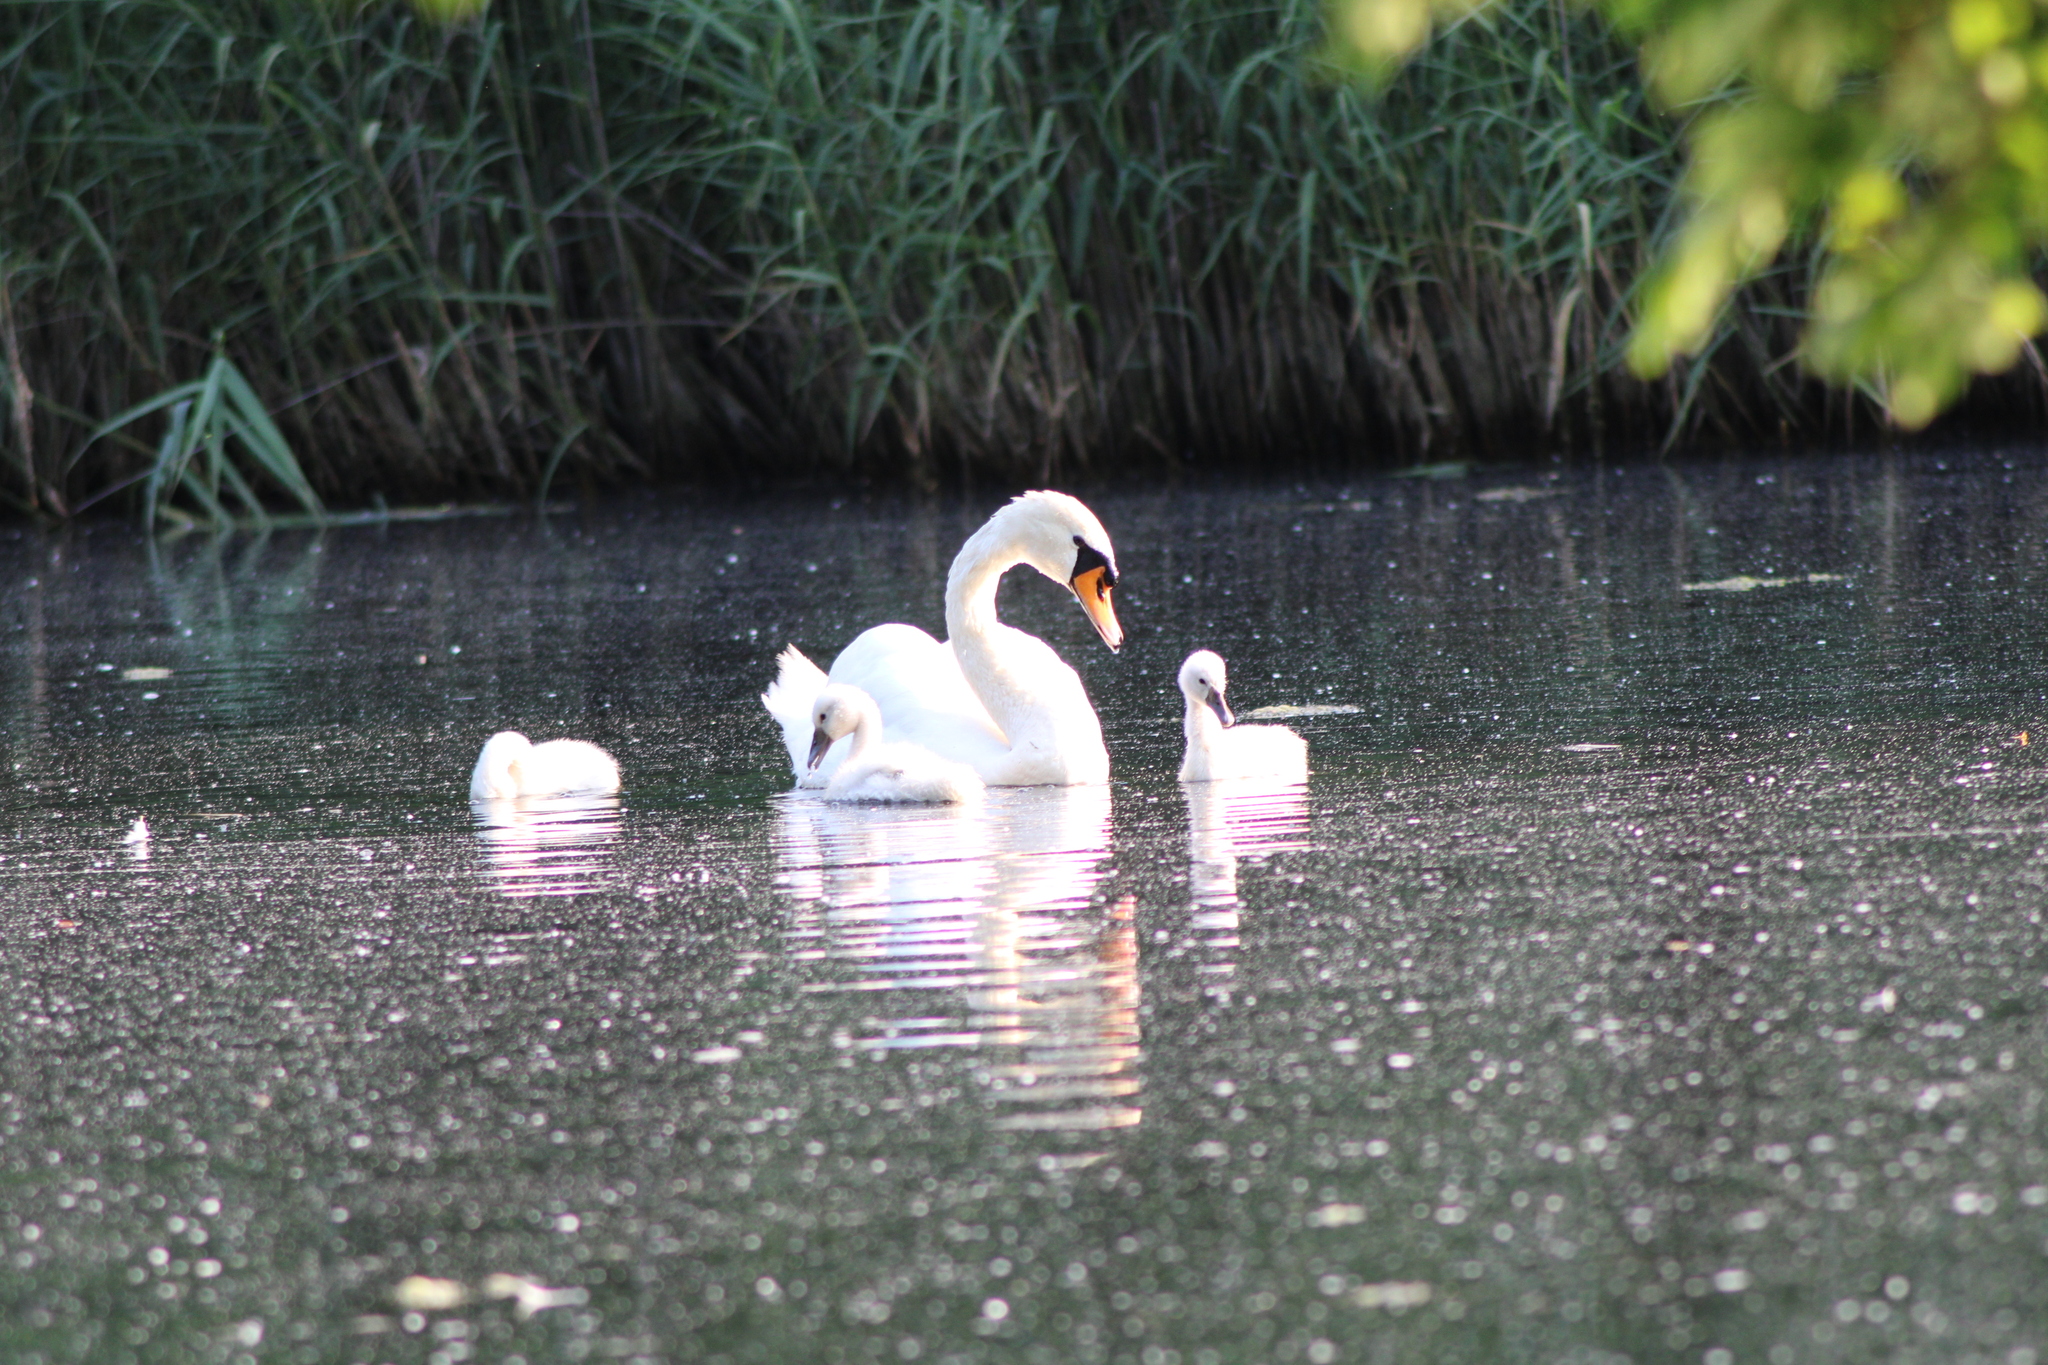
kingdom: Animalia
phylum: Chordata
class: Aves
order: Anseriformes
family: Anatidae
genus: Cygnus
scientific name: Cygnus olor
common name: Mute swan
